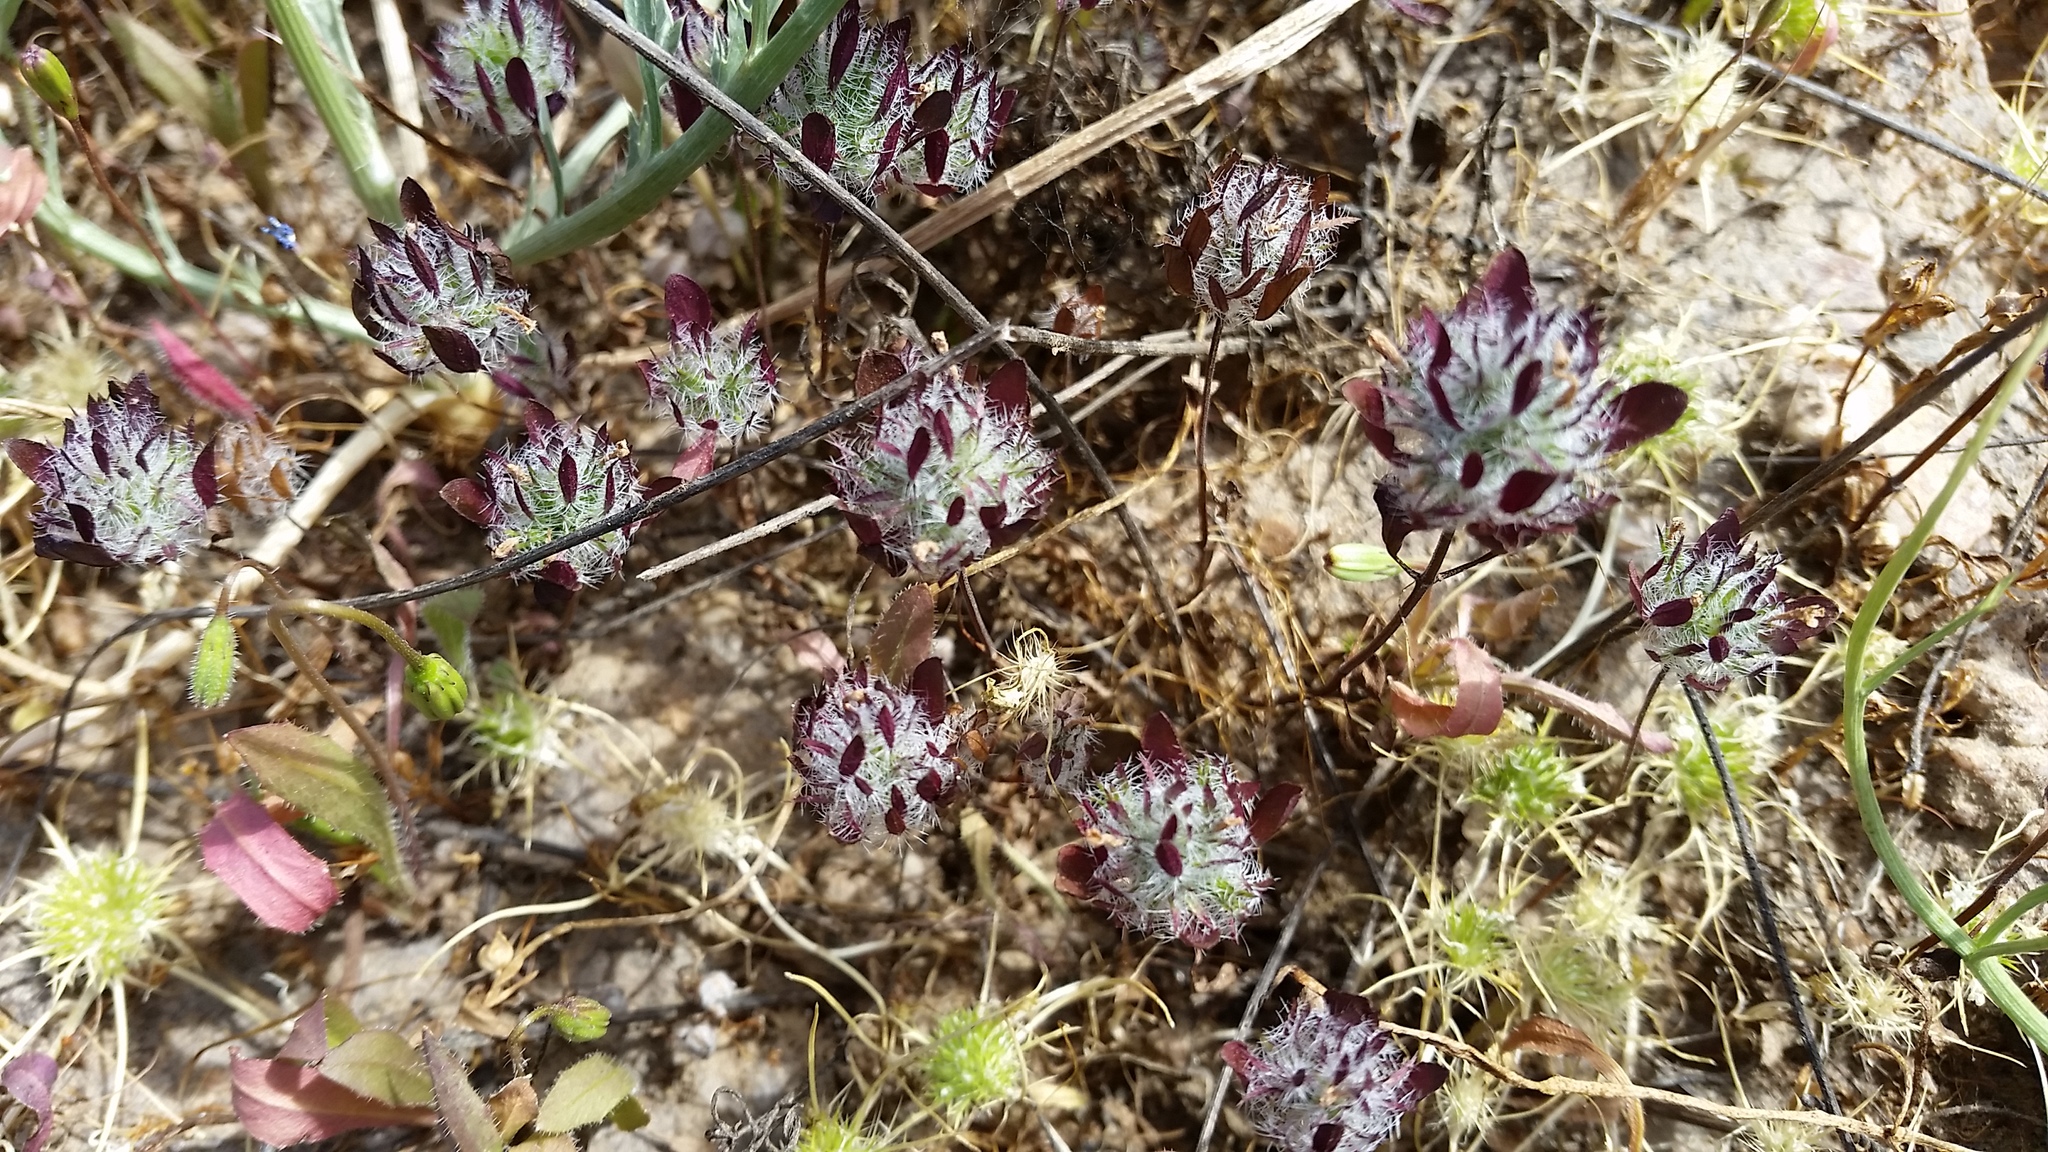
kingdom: Plantae
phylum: Tracheophyta
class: Magnoliopsida
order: Lamiales
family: Lamiaceae
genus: Pogogyne
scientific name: Pogogyne zizyphoroides
